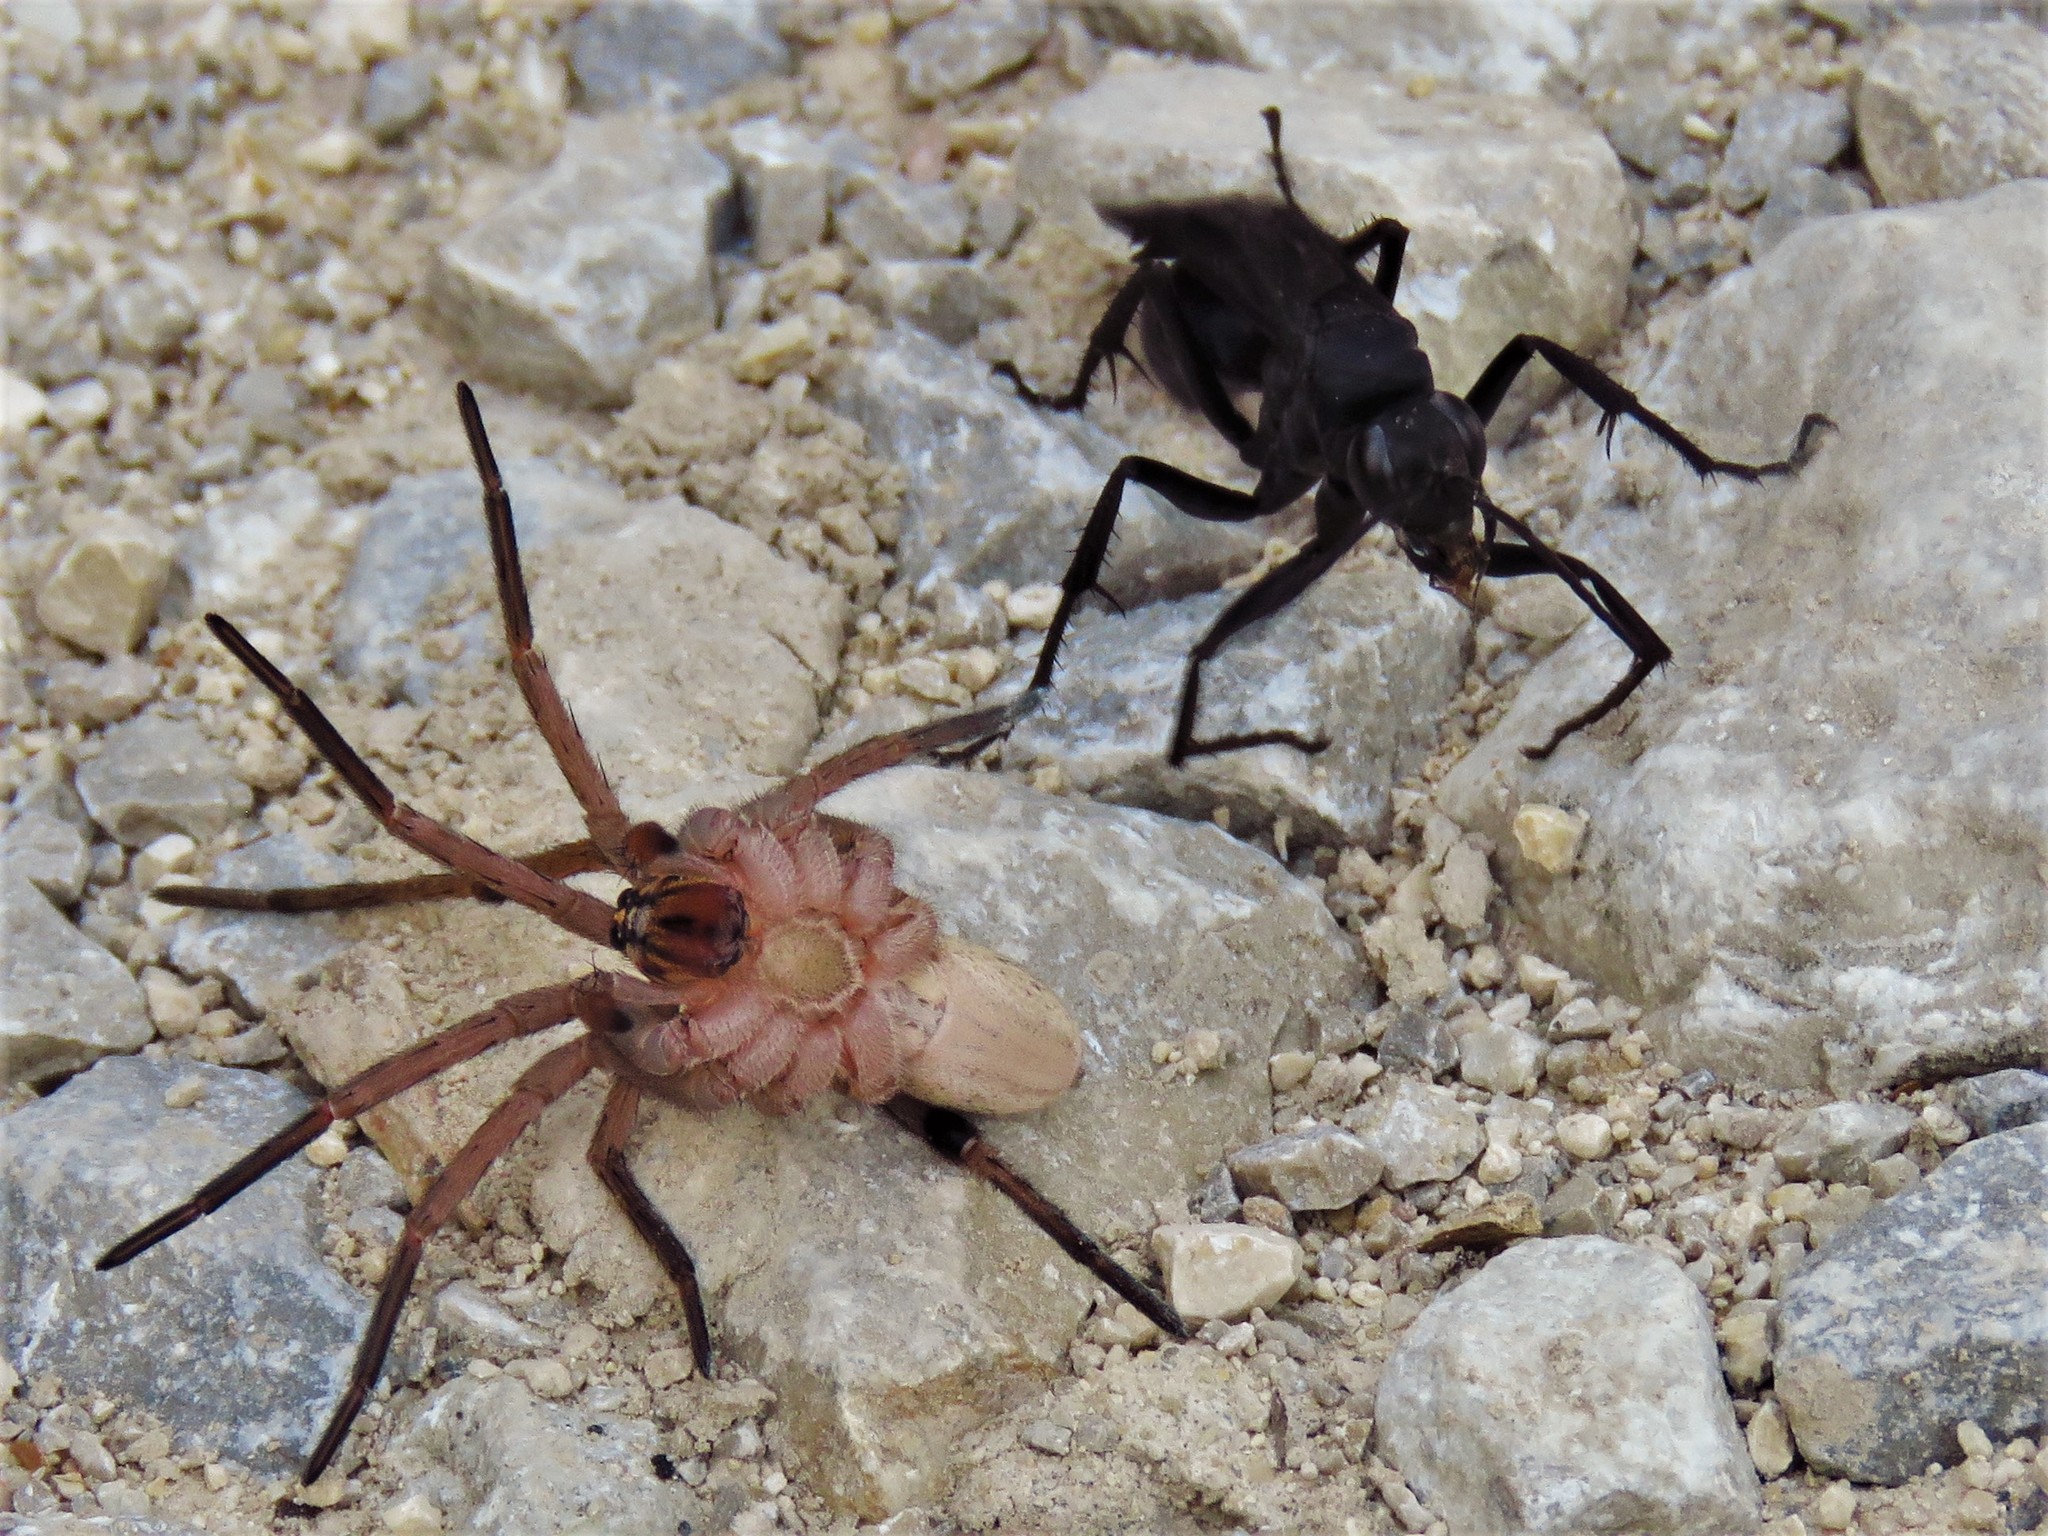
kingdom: Animalia
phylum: Arthropoda
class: Arachnida
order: Araneae
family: Lycosidae
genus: Rabidosa
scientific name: Rabidosa rabida
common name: Rabid wolf spider
